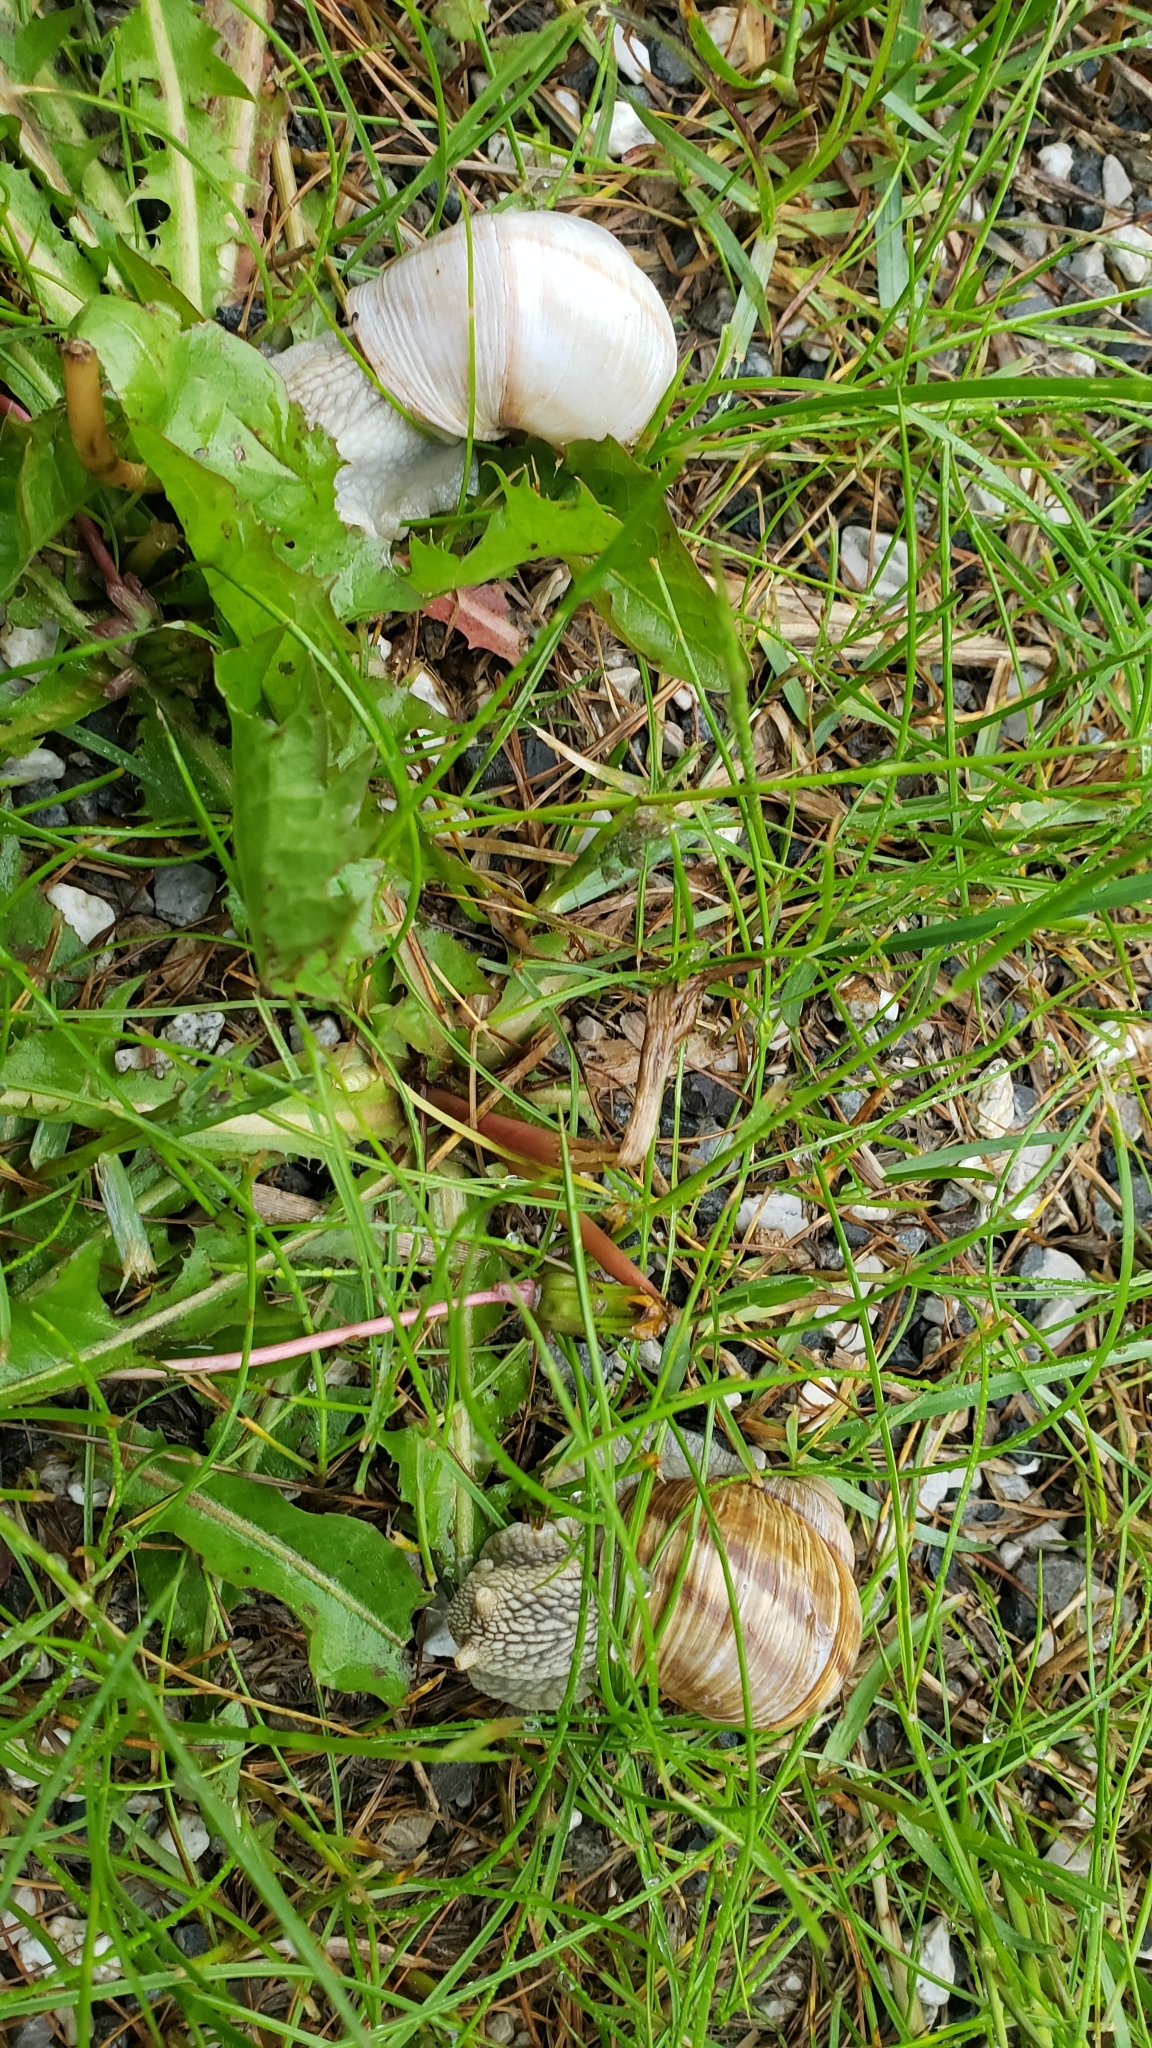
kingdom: Animalia
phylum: Mollusca
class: Gastropoda
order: Stylommatophora
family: Helicidae
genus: Helix
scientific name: Helix pomatia
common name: Roman snail
